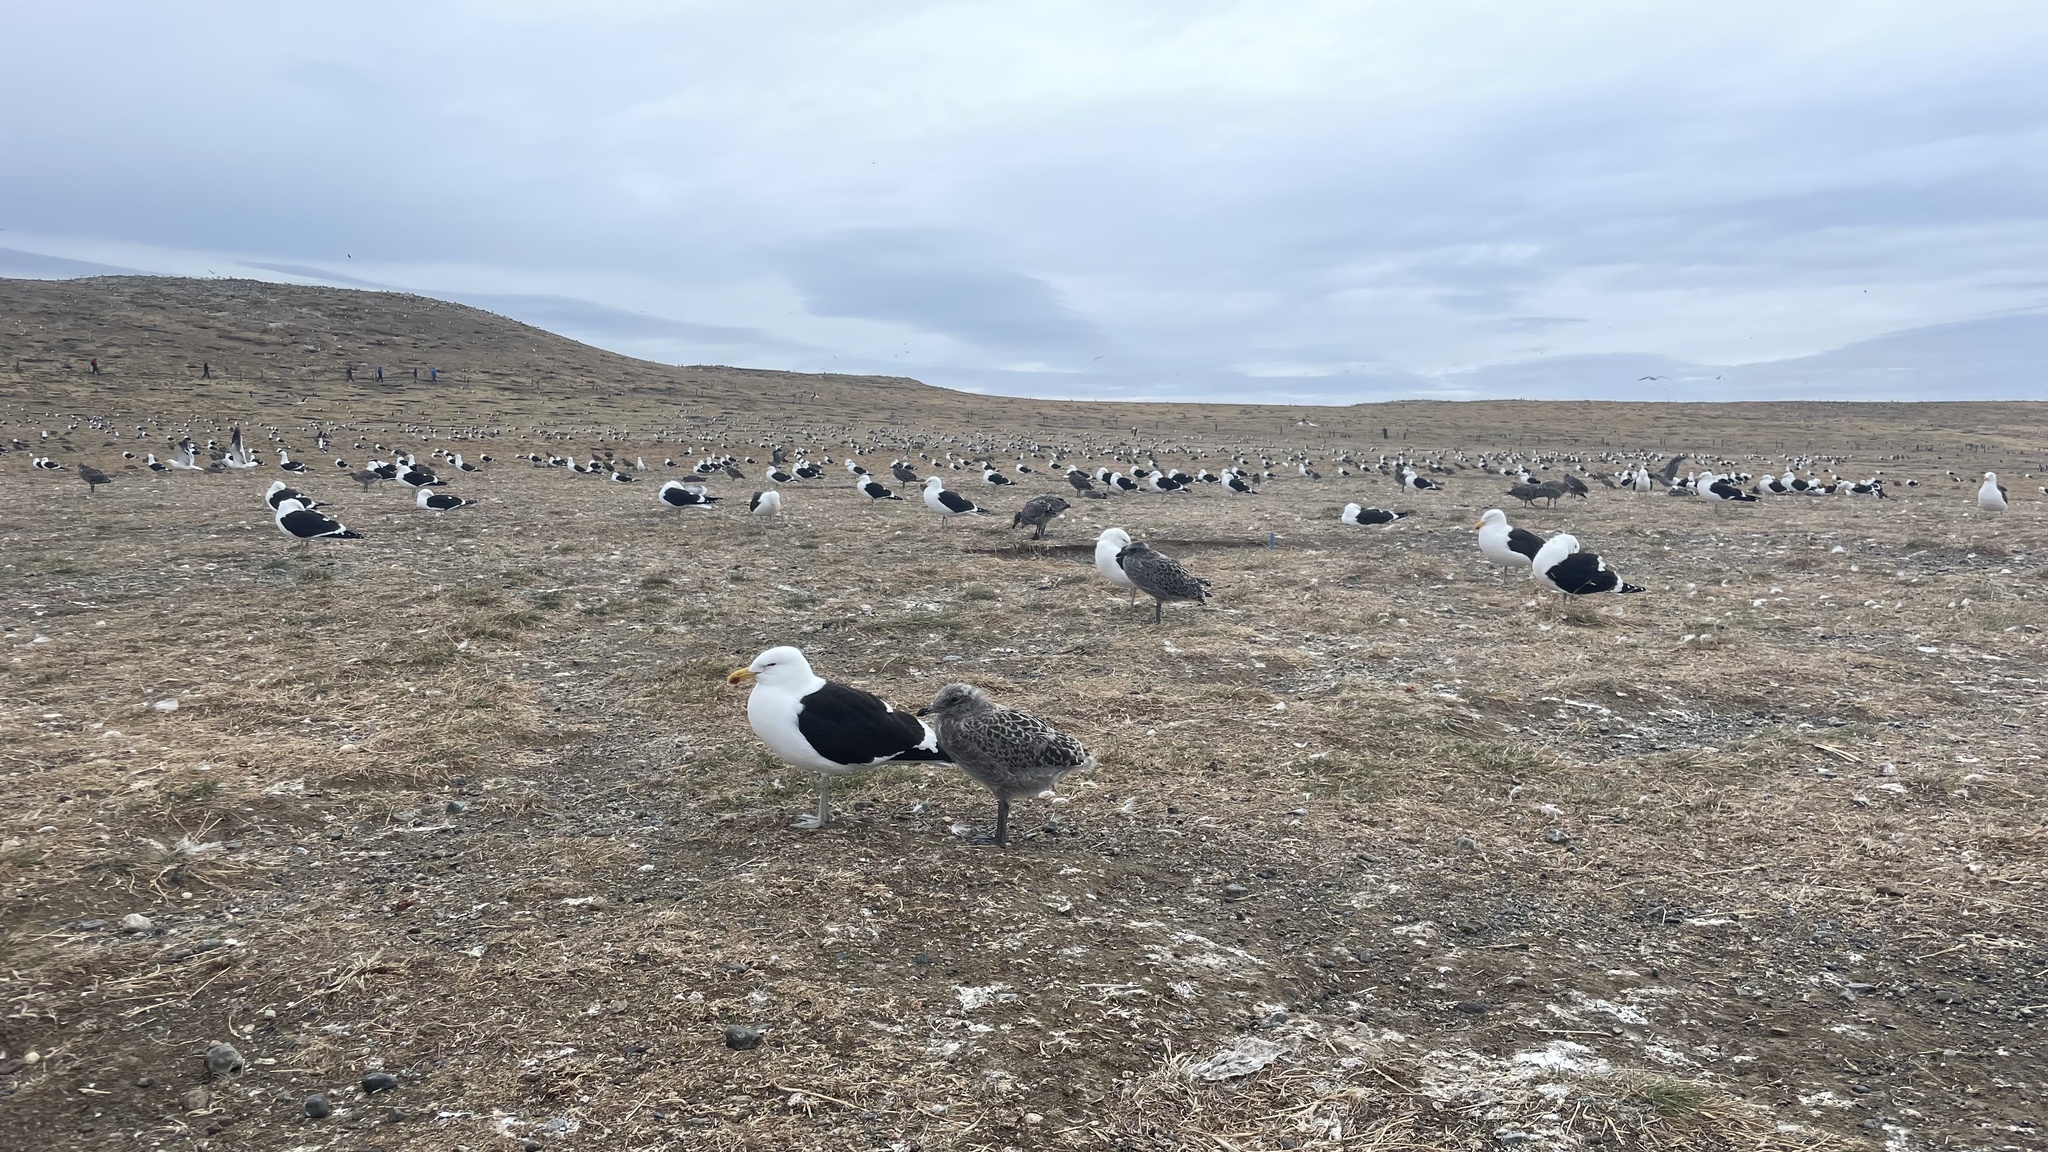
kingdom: Animalia
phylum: Chordata
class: Aves
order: Charadriiformes
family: Laridae
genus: Larus
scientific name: Larus dominicanus
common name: Kelp gull
